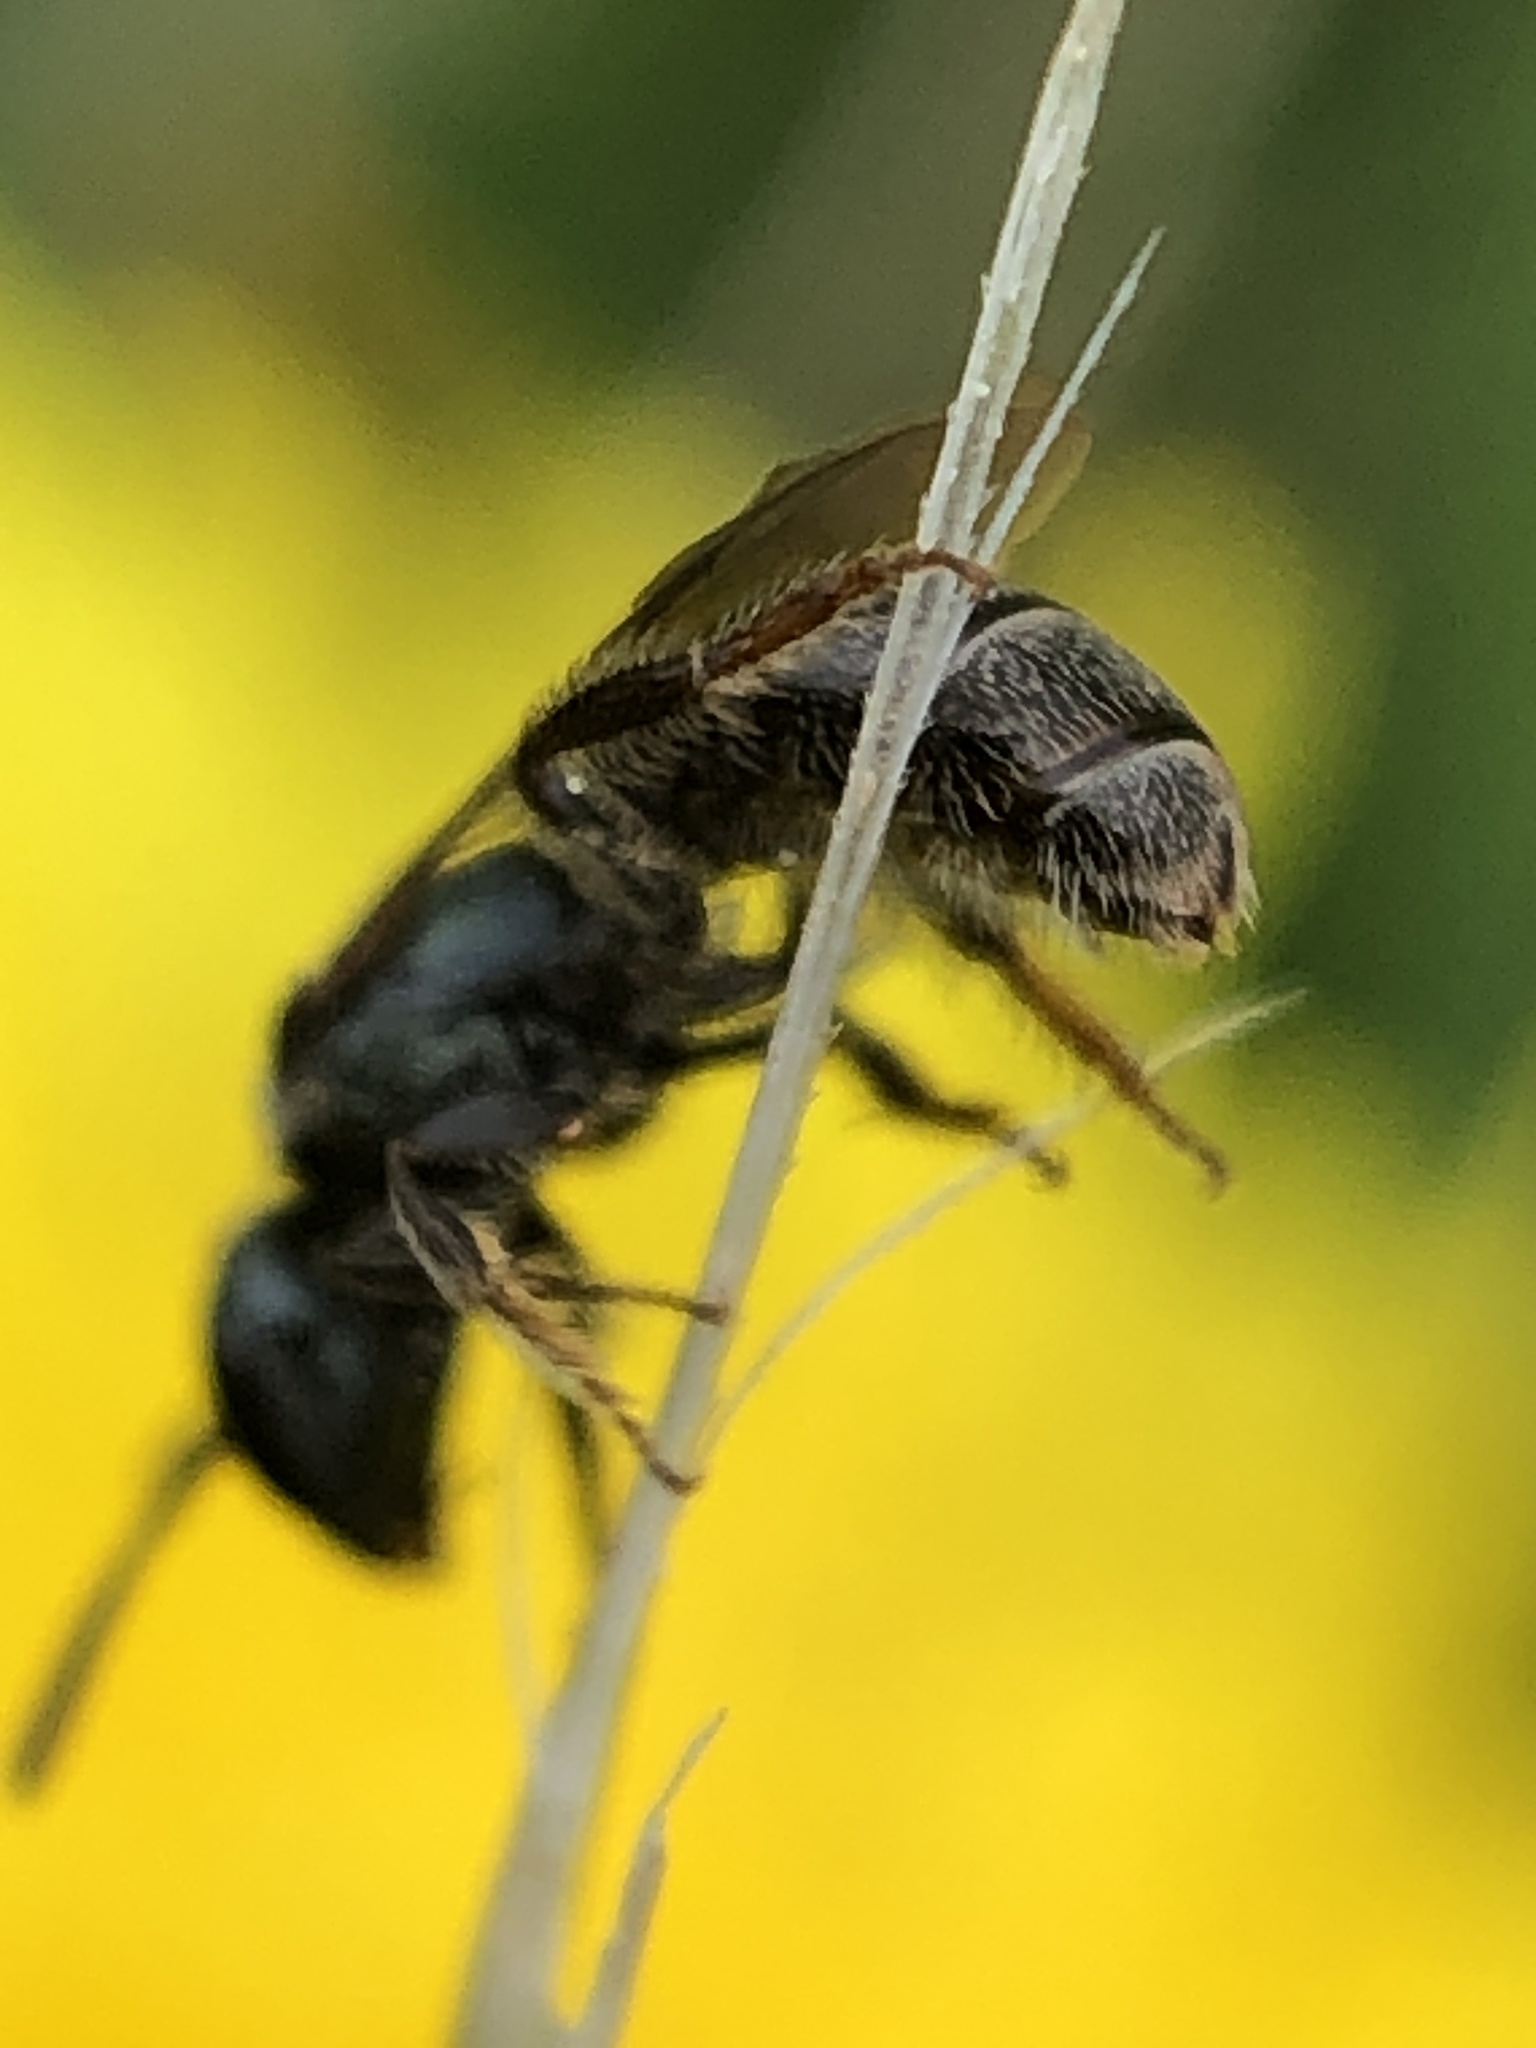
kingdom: Animalia
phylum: Arthropoda
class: Insecta
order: Hymenoptera
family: Halictidae
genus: Lasioglossum
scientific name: Lasioglossum imitatum
